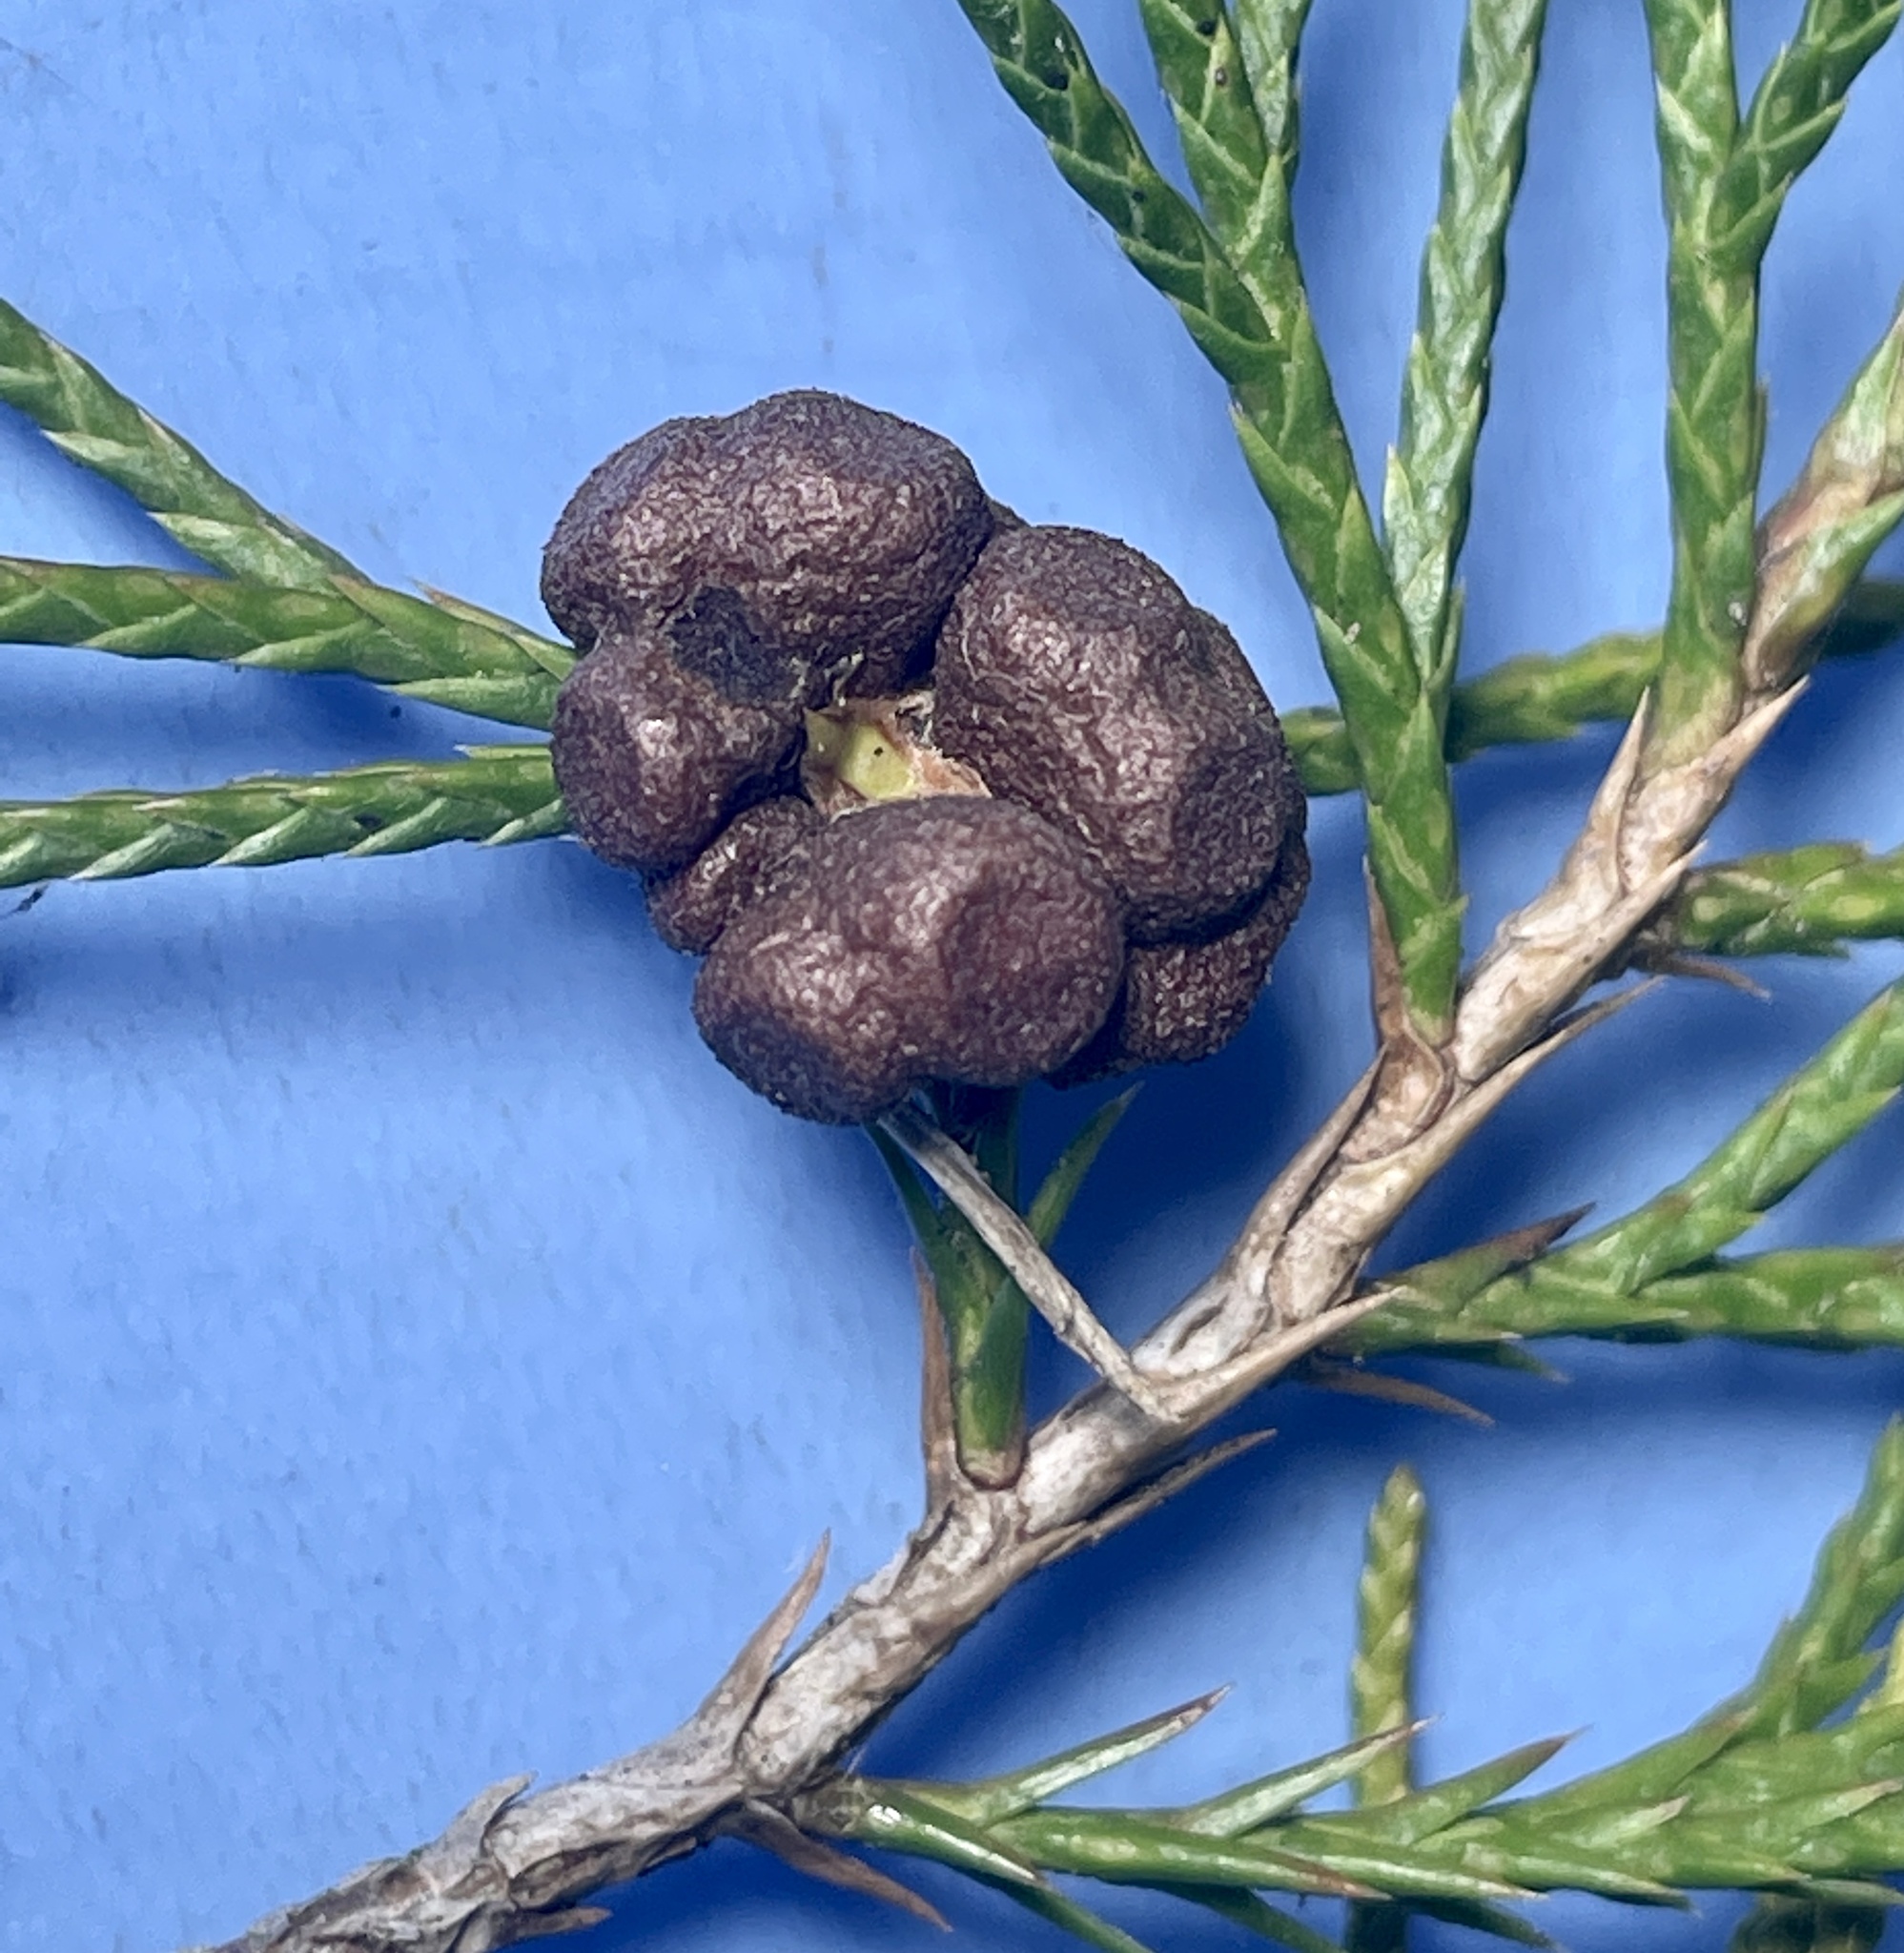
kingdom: Fungi
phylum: Basidiomycota
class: Pucciniomycetes
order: Pucciniales
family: Gymnosporangiaceae
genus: Gymnosporangium
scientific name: Gymnosporangium juniperi-virginianae
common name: Juniper-apple rust
